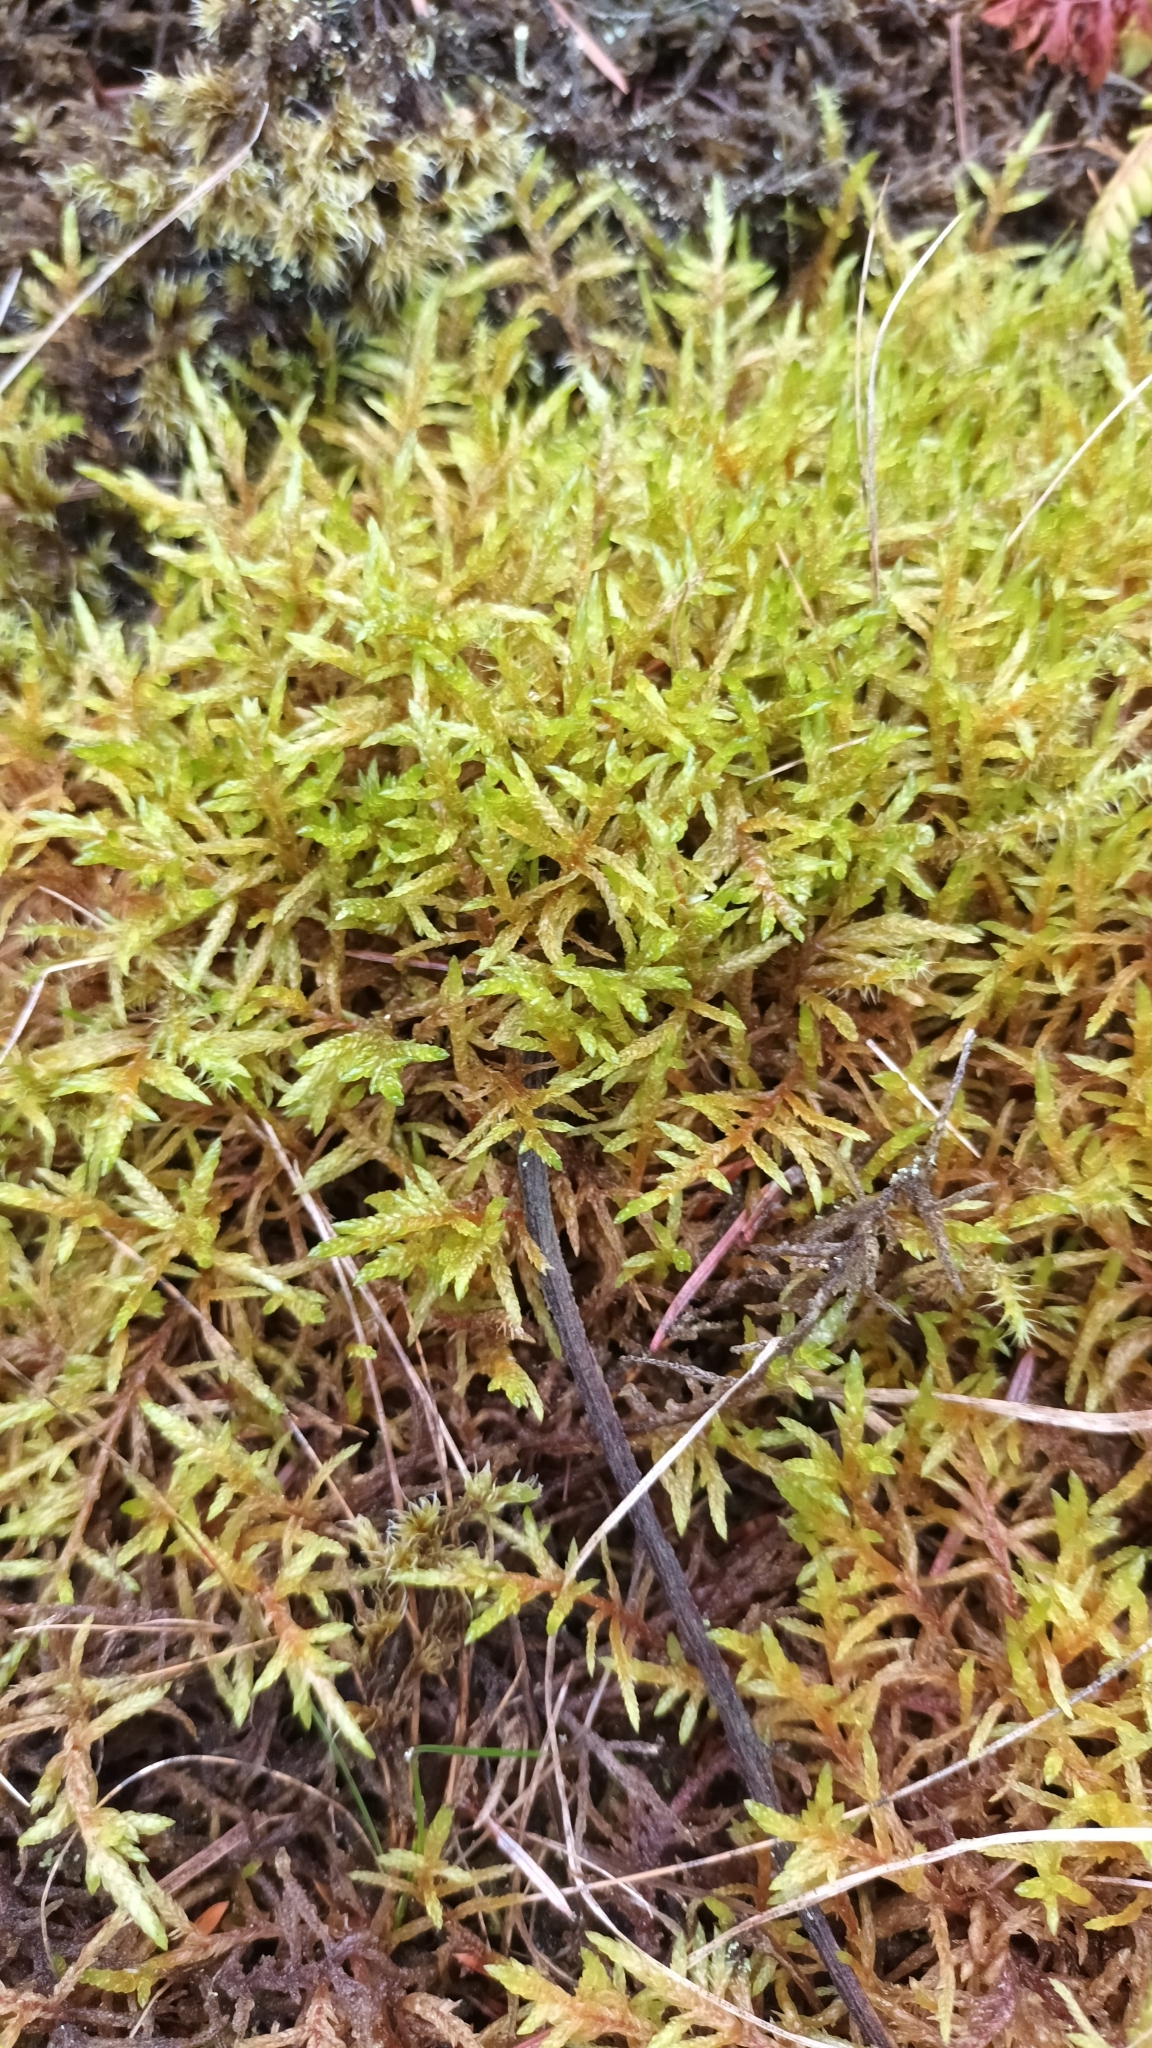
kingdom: Plantae
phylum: Bryophyta
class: Bryopsida
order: Hypnales
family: Hylocomiaceae
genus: Pleurozium
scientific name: Pleurozium schreberi
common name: Red-stemmed feather moss
